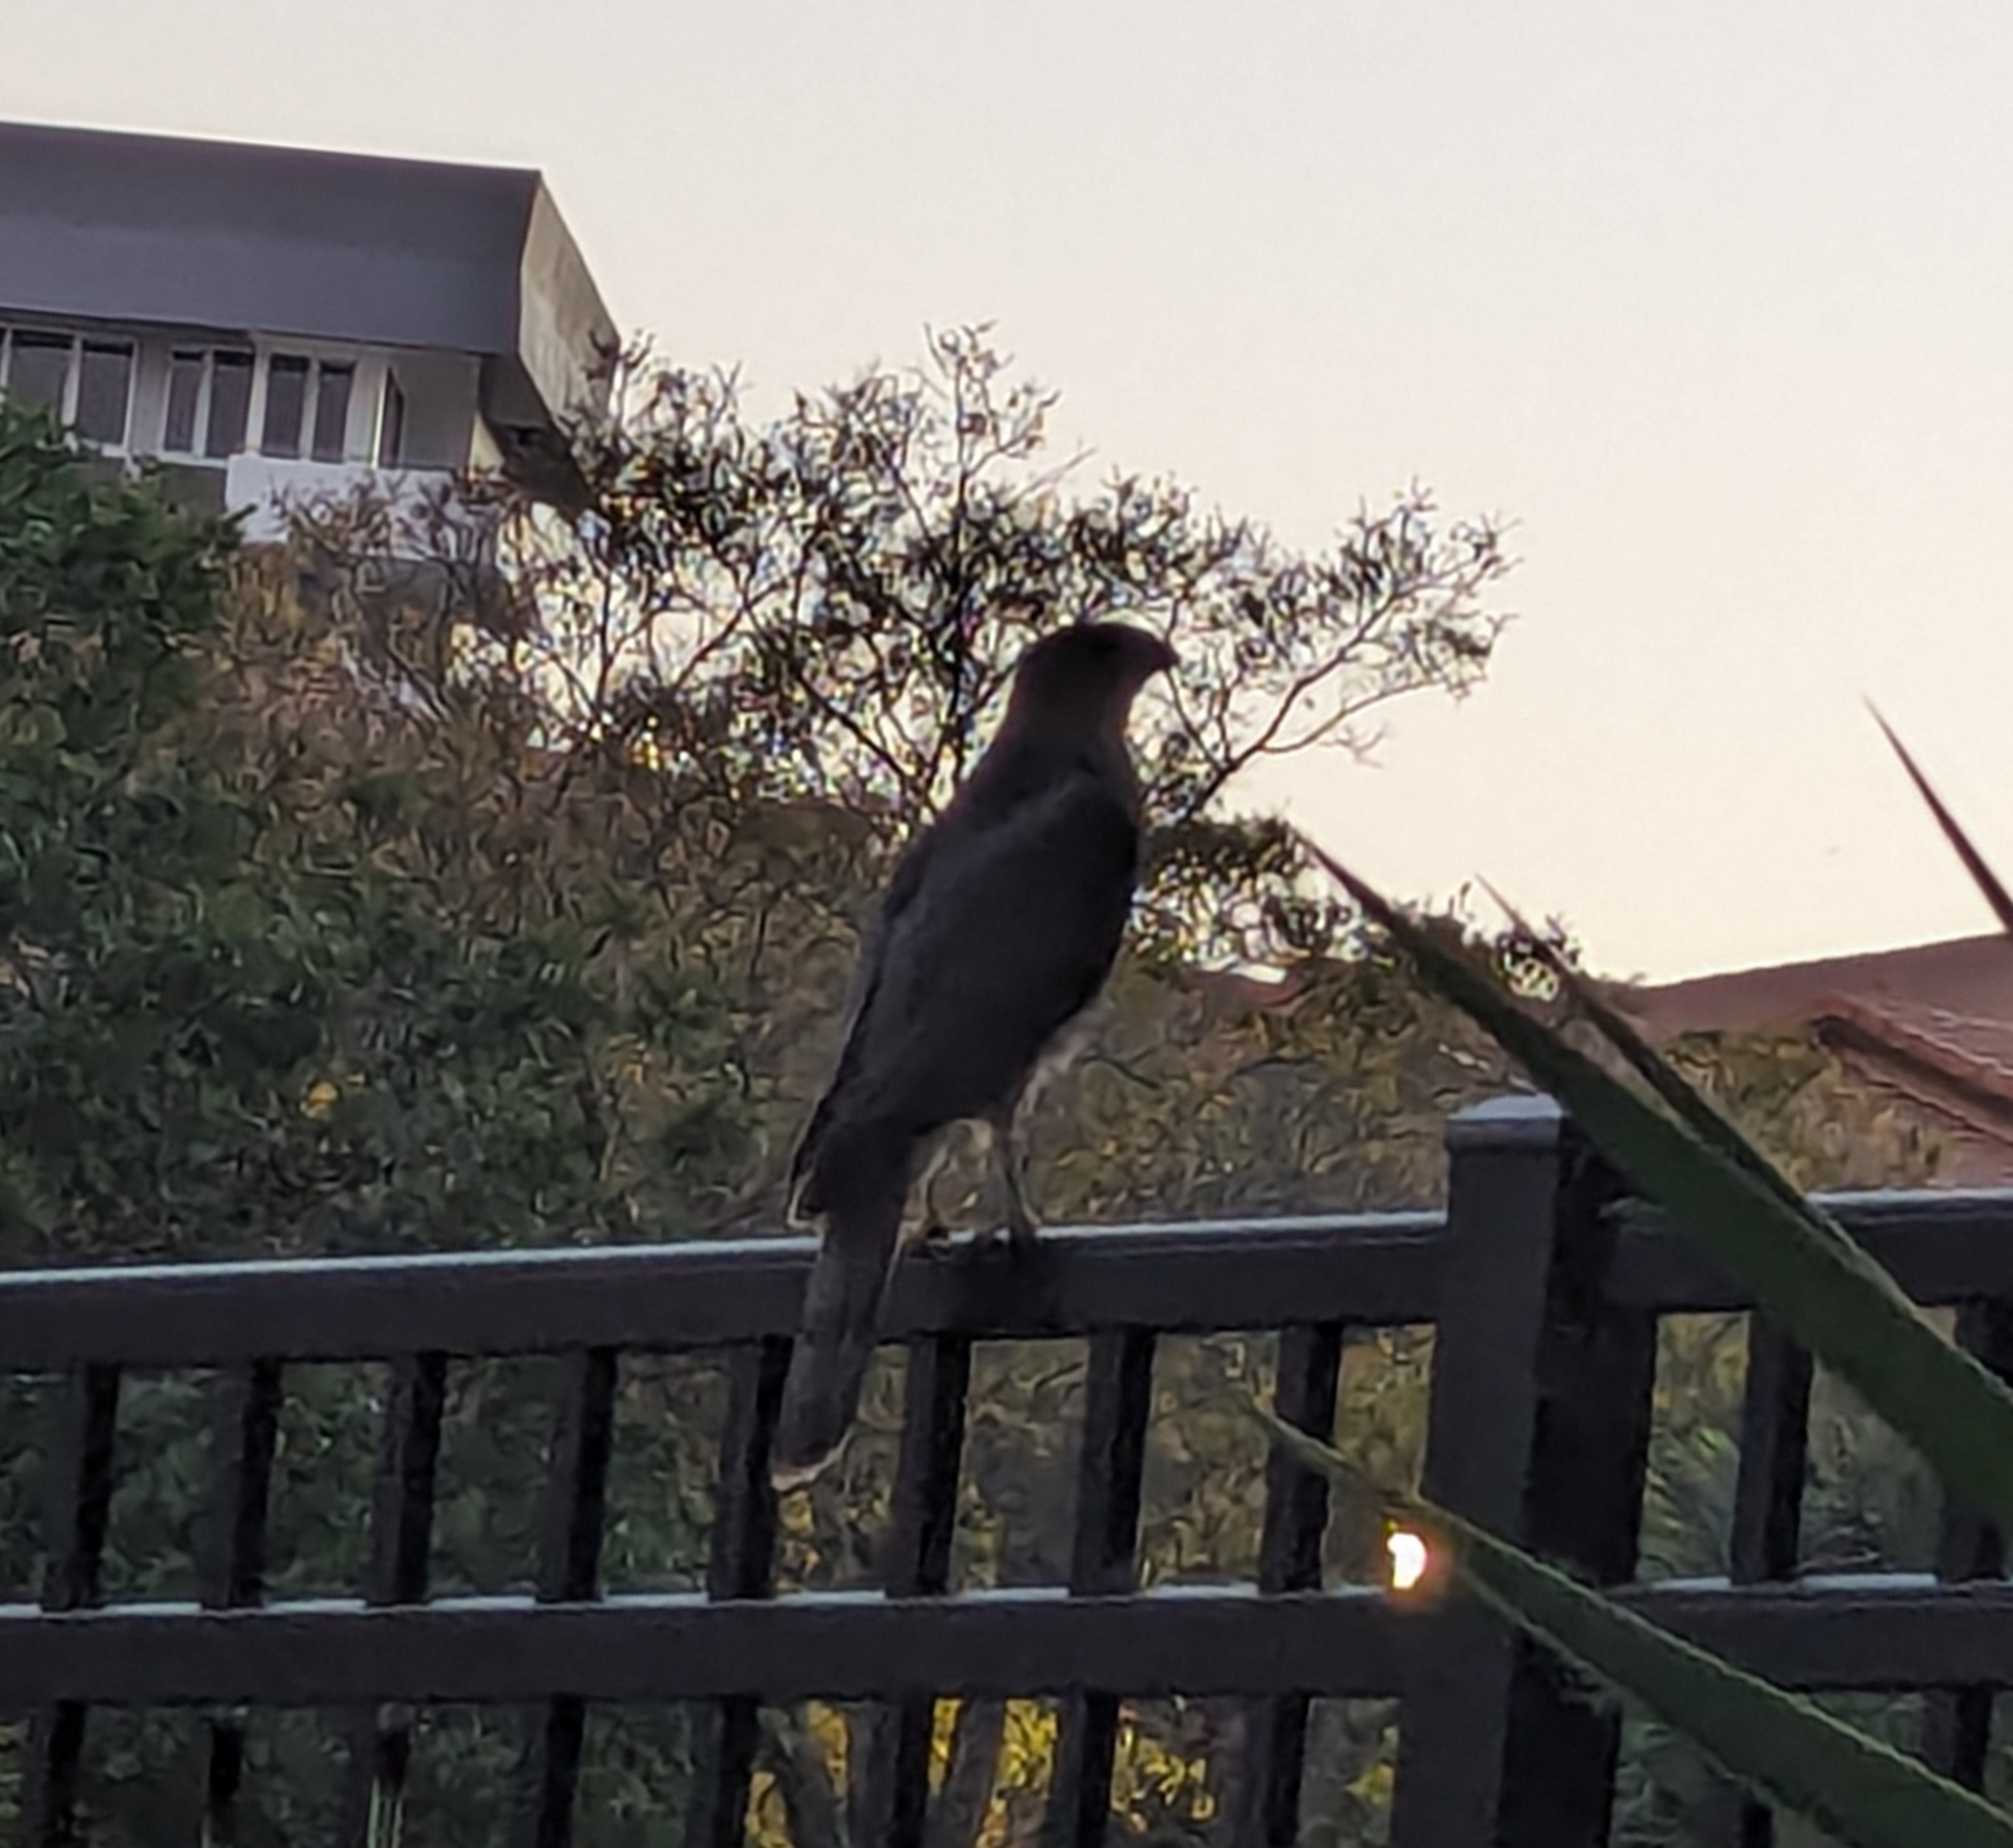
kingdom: Animalia
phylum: Chordata
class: Aves
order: Accipitriformes
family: Accipitridae
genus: Accipiter
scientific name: Accipiter cooperii
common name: Cooper's hawk
